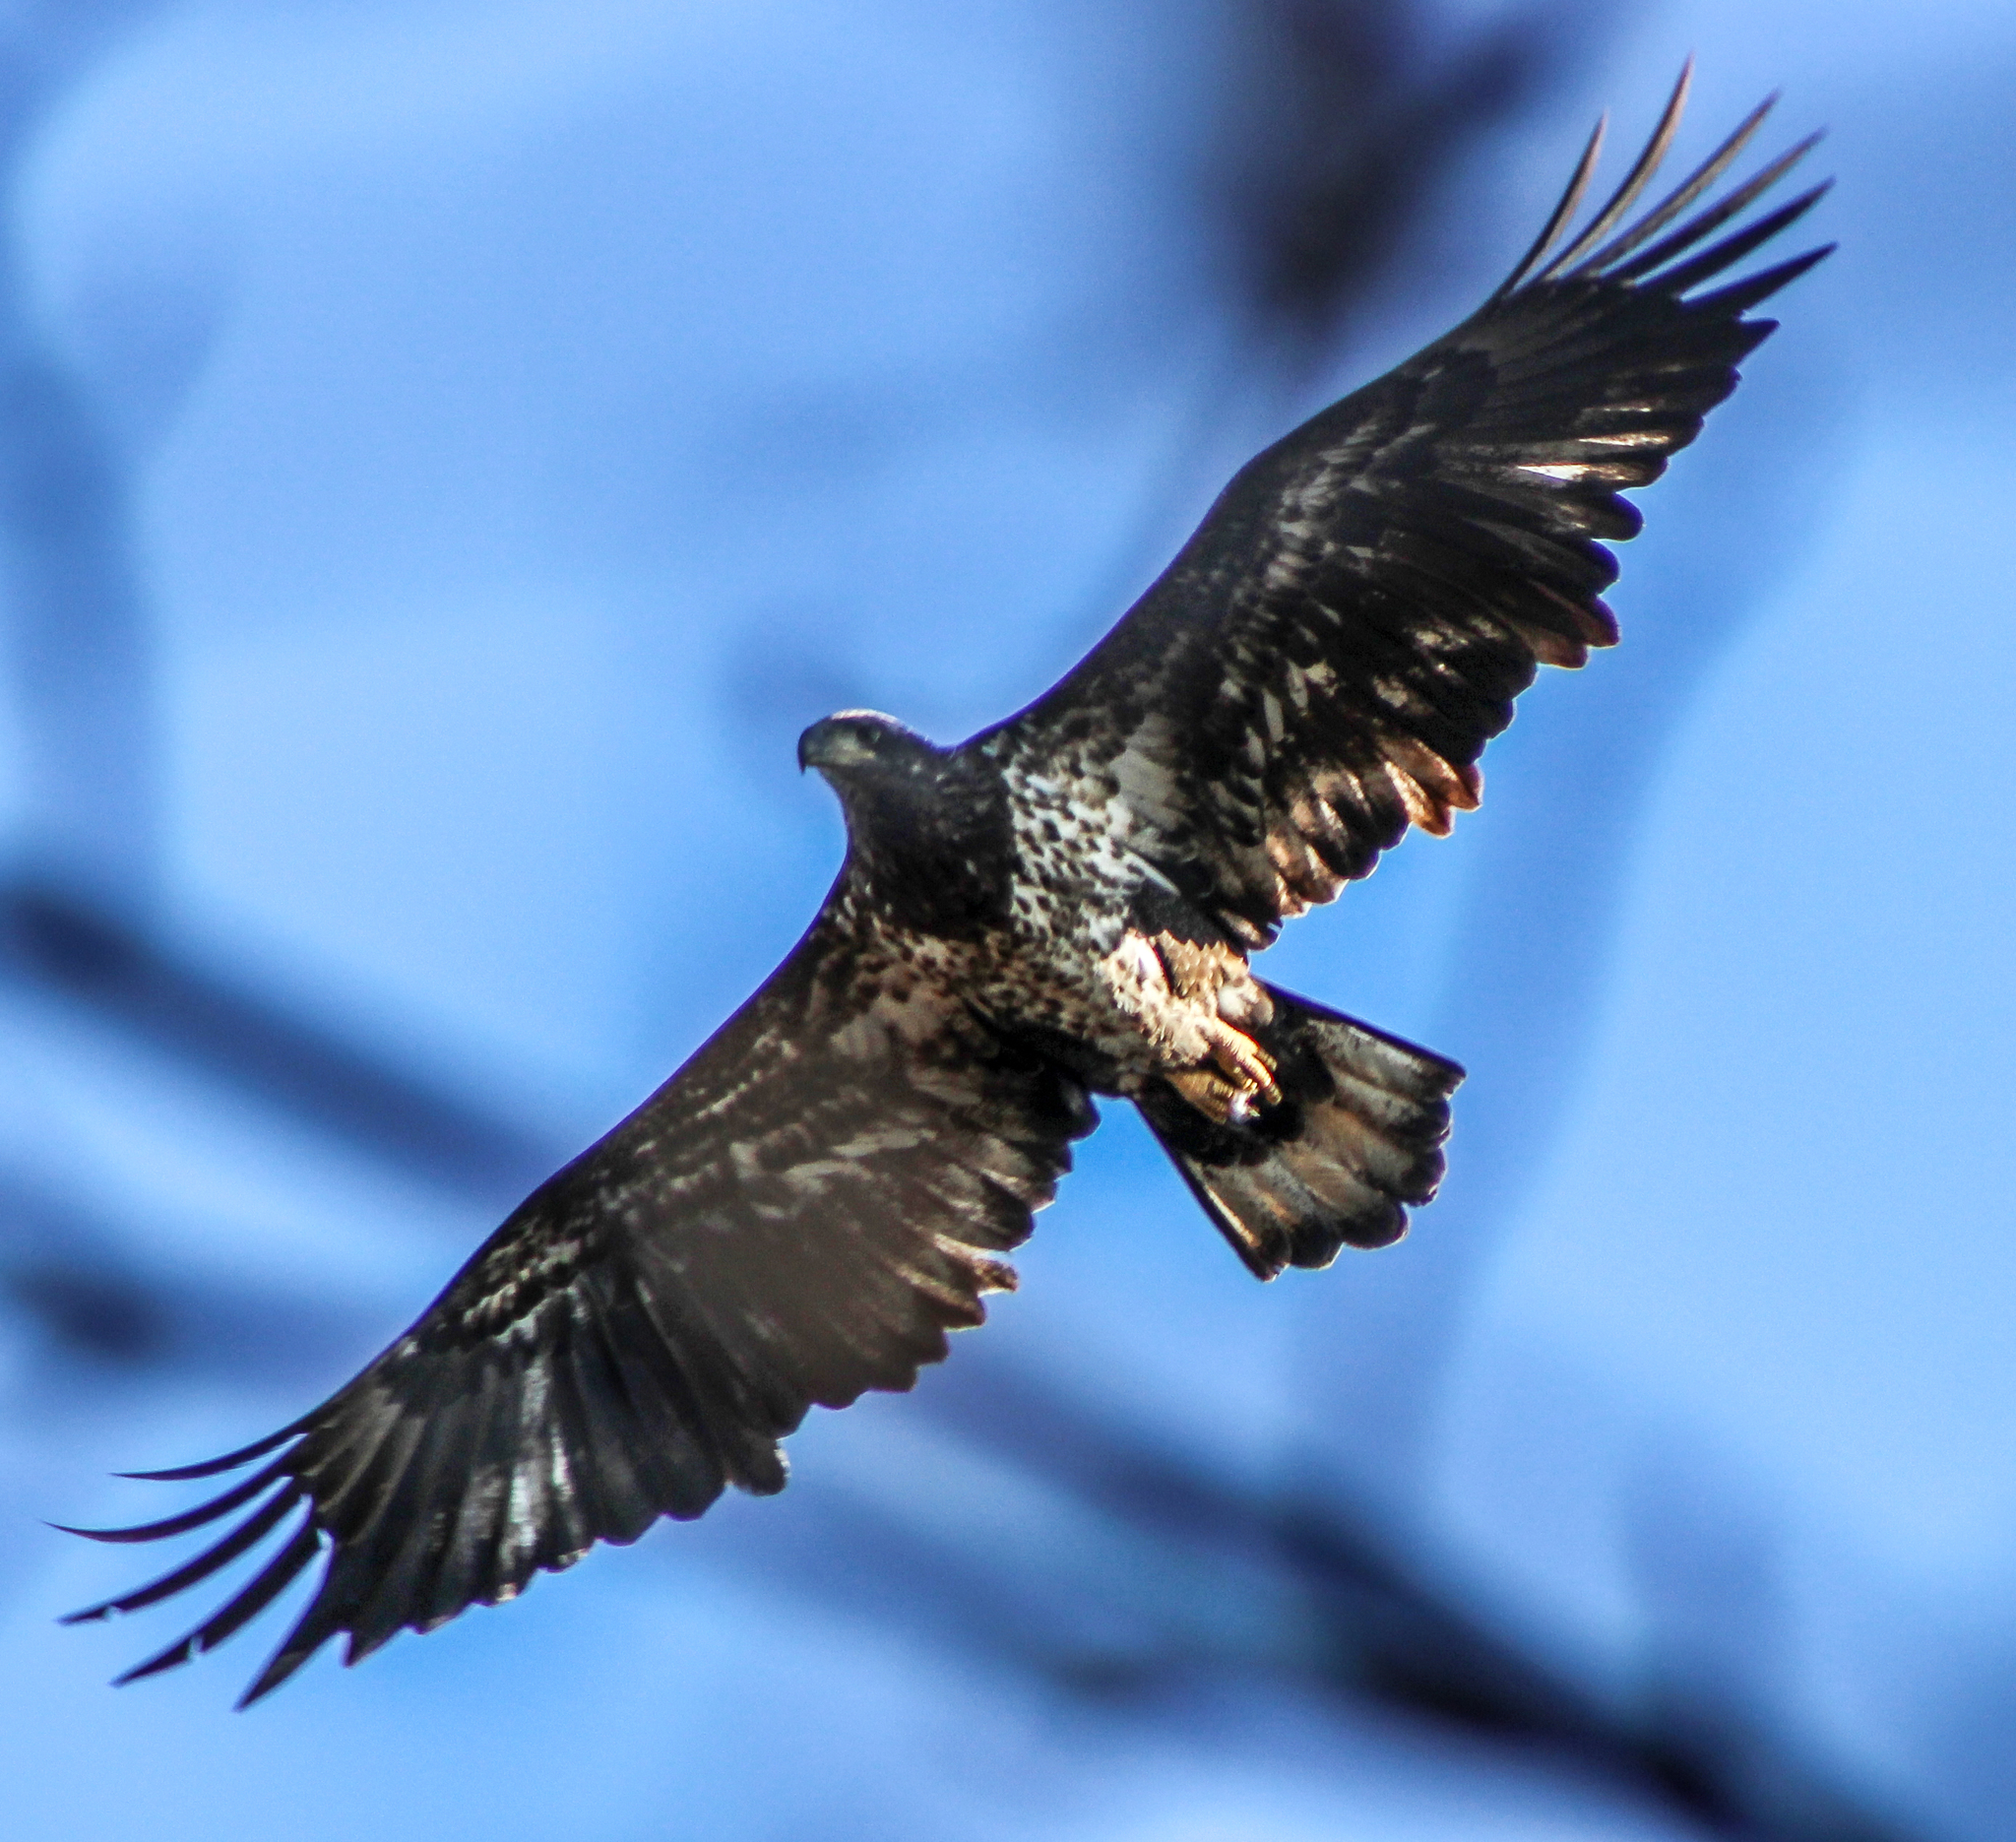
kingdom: Animalia
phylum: Chordata
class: Aves
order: Accipitriformes
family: Accipitridae
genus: Haliaeetus
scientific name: Haliaeetus leucocephalus
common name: Bald eagle
